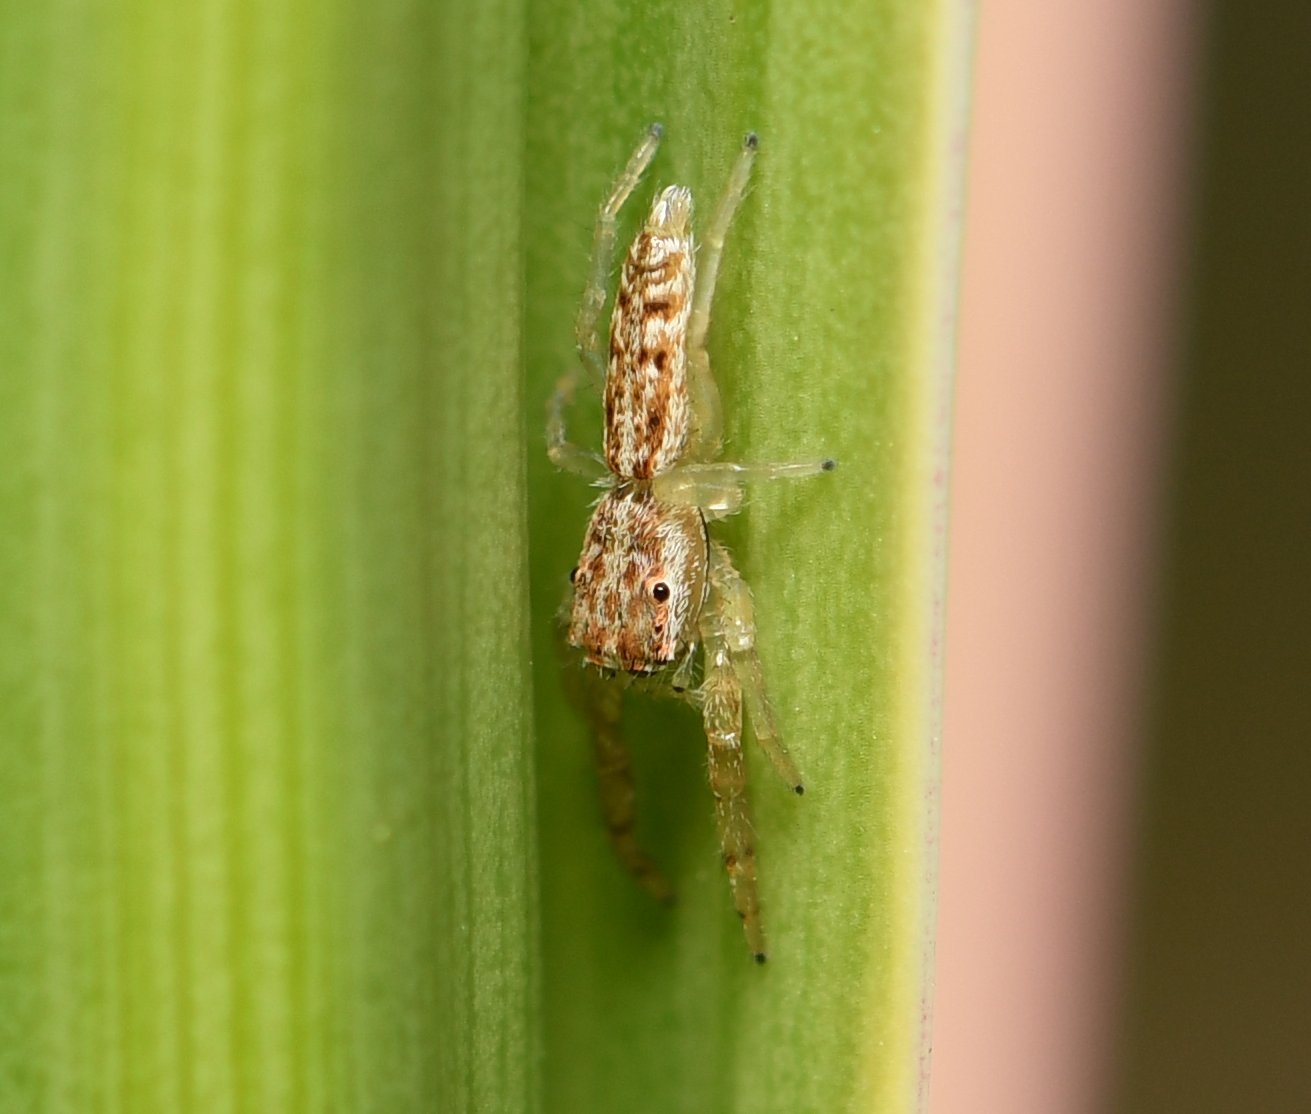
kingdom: Animalia
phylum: Arthropoda
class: Arachnida
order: Araneae
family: Salticidae
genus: Hentzia
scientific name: Hentzia chekika
